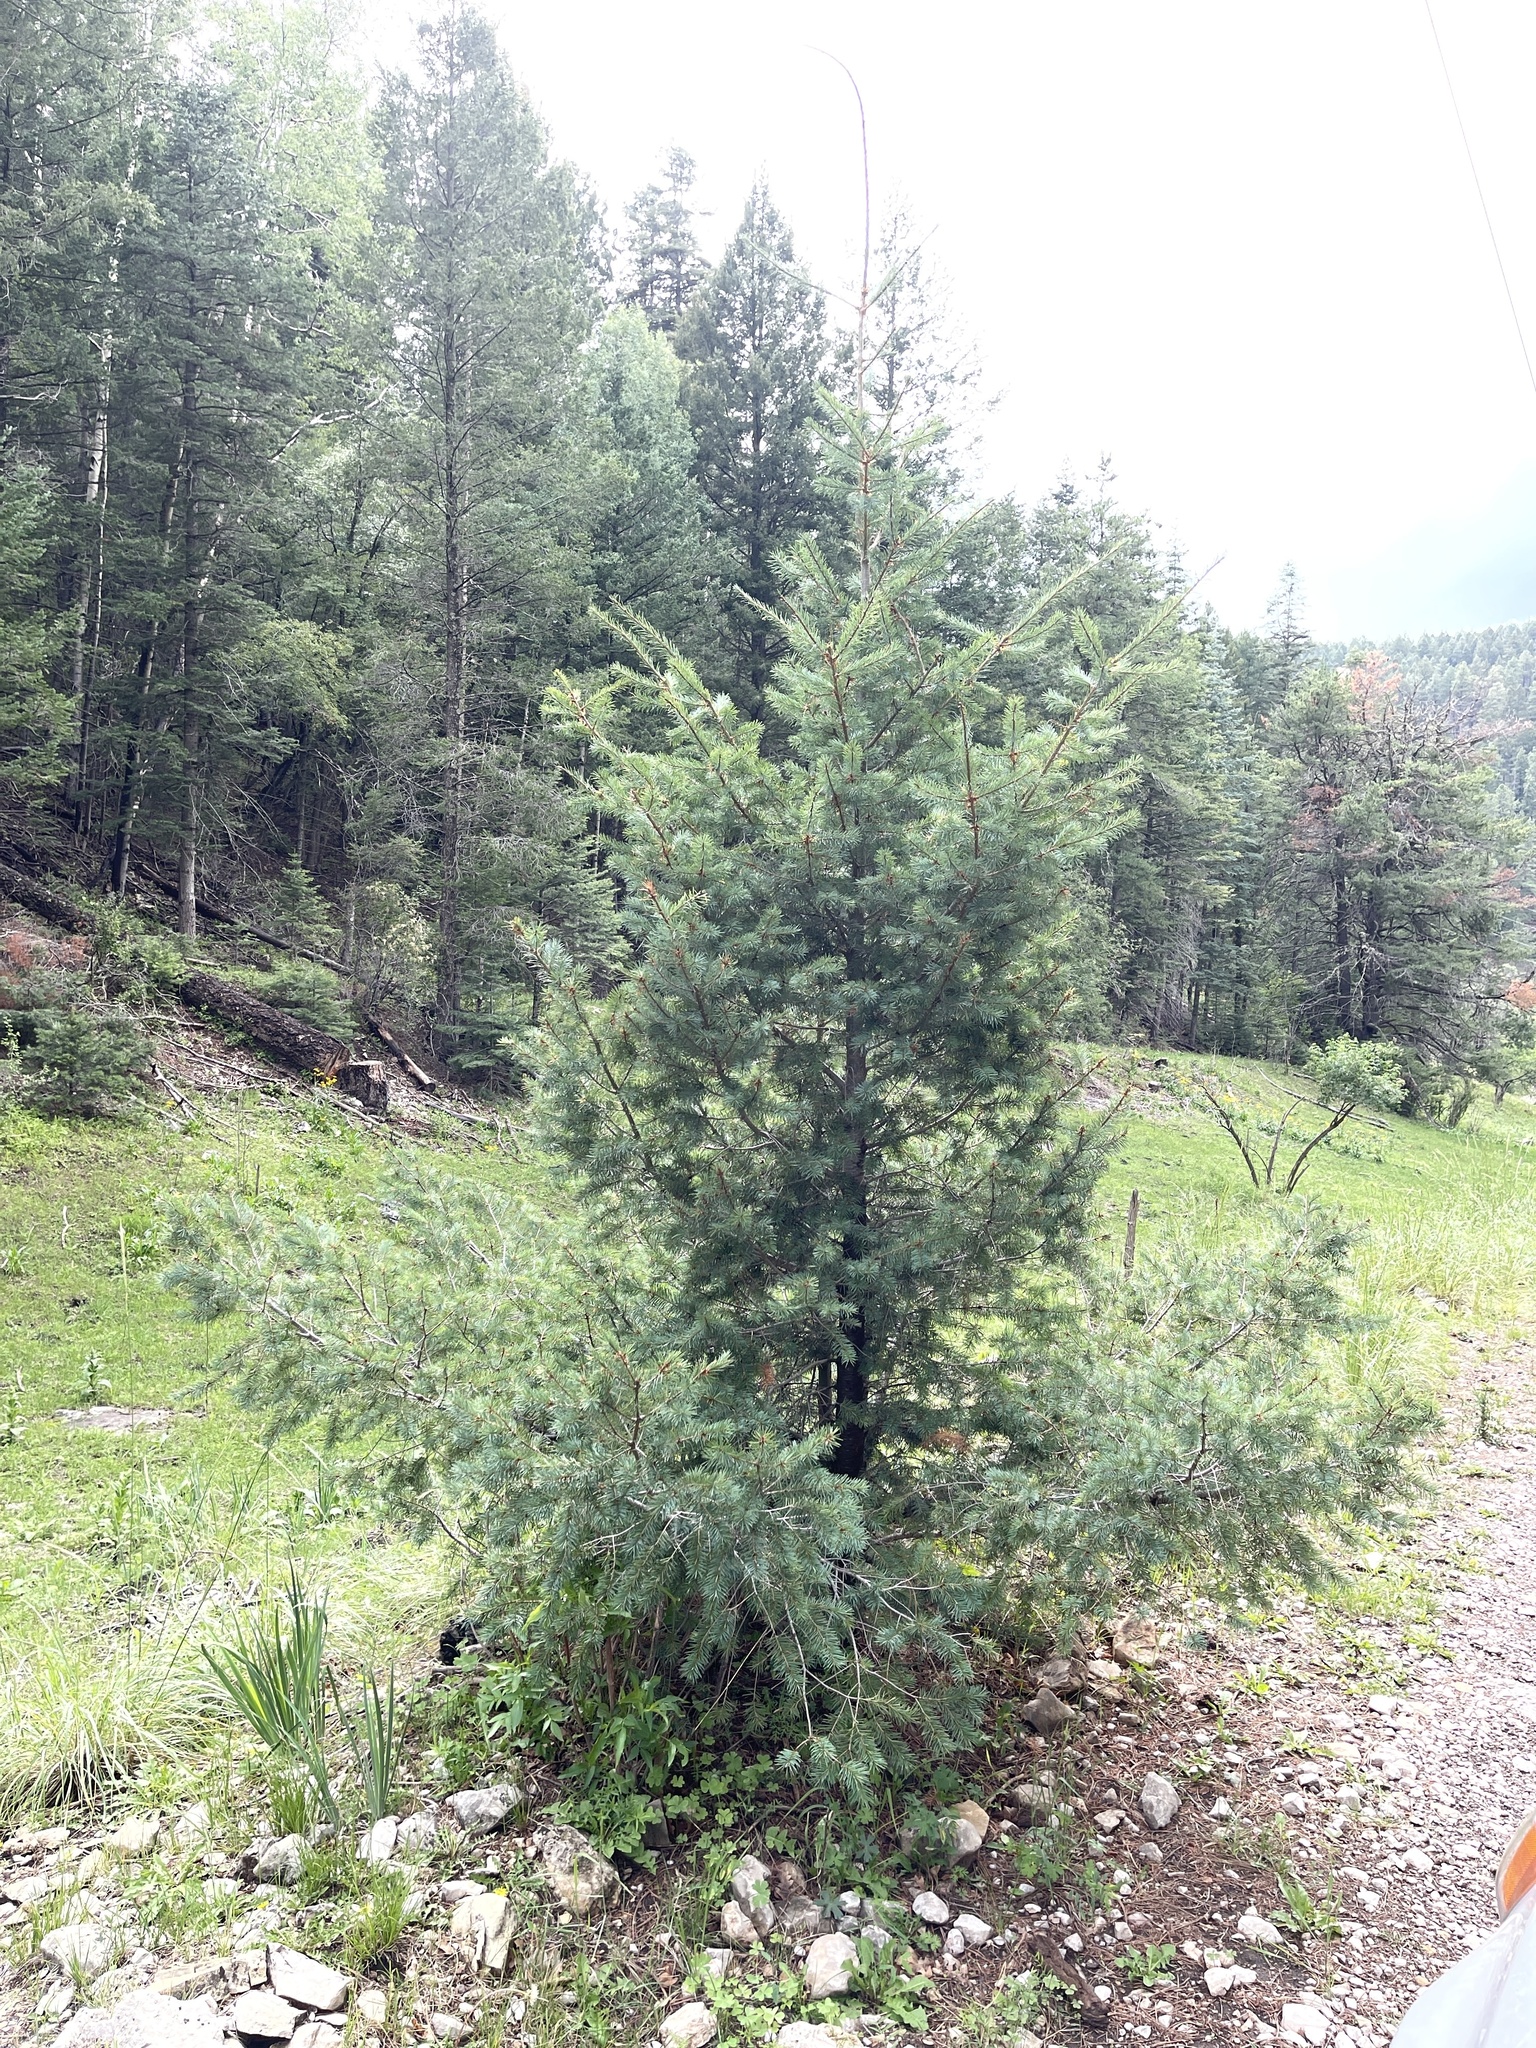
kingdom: Plantae
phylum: Tracheophyta
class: Pinopsida
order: Pinales
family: Pinaceae
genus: Pseudotsuga
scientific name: Pseudotsuga menziesii
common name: Douglas fir
